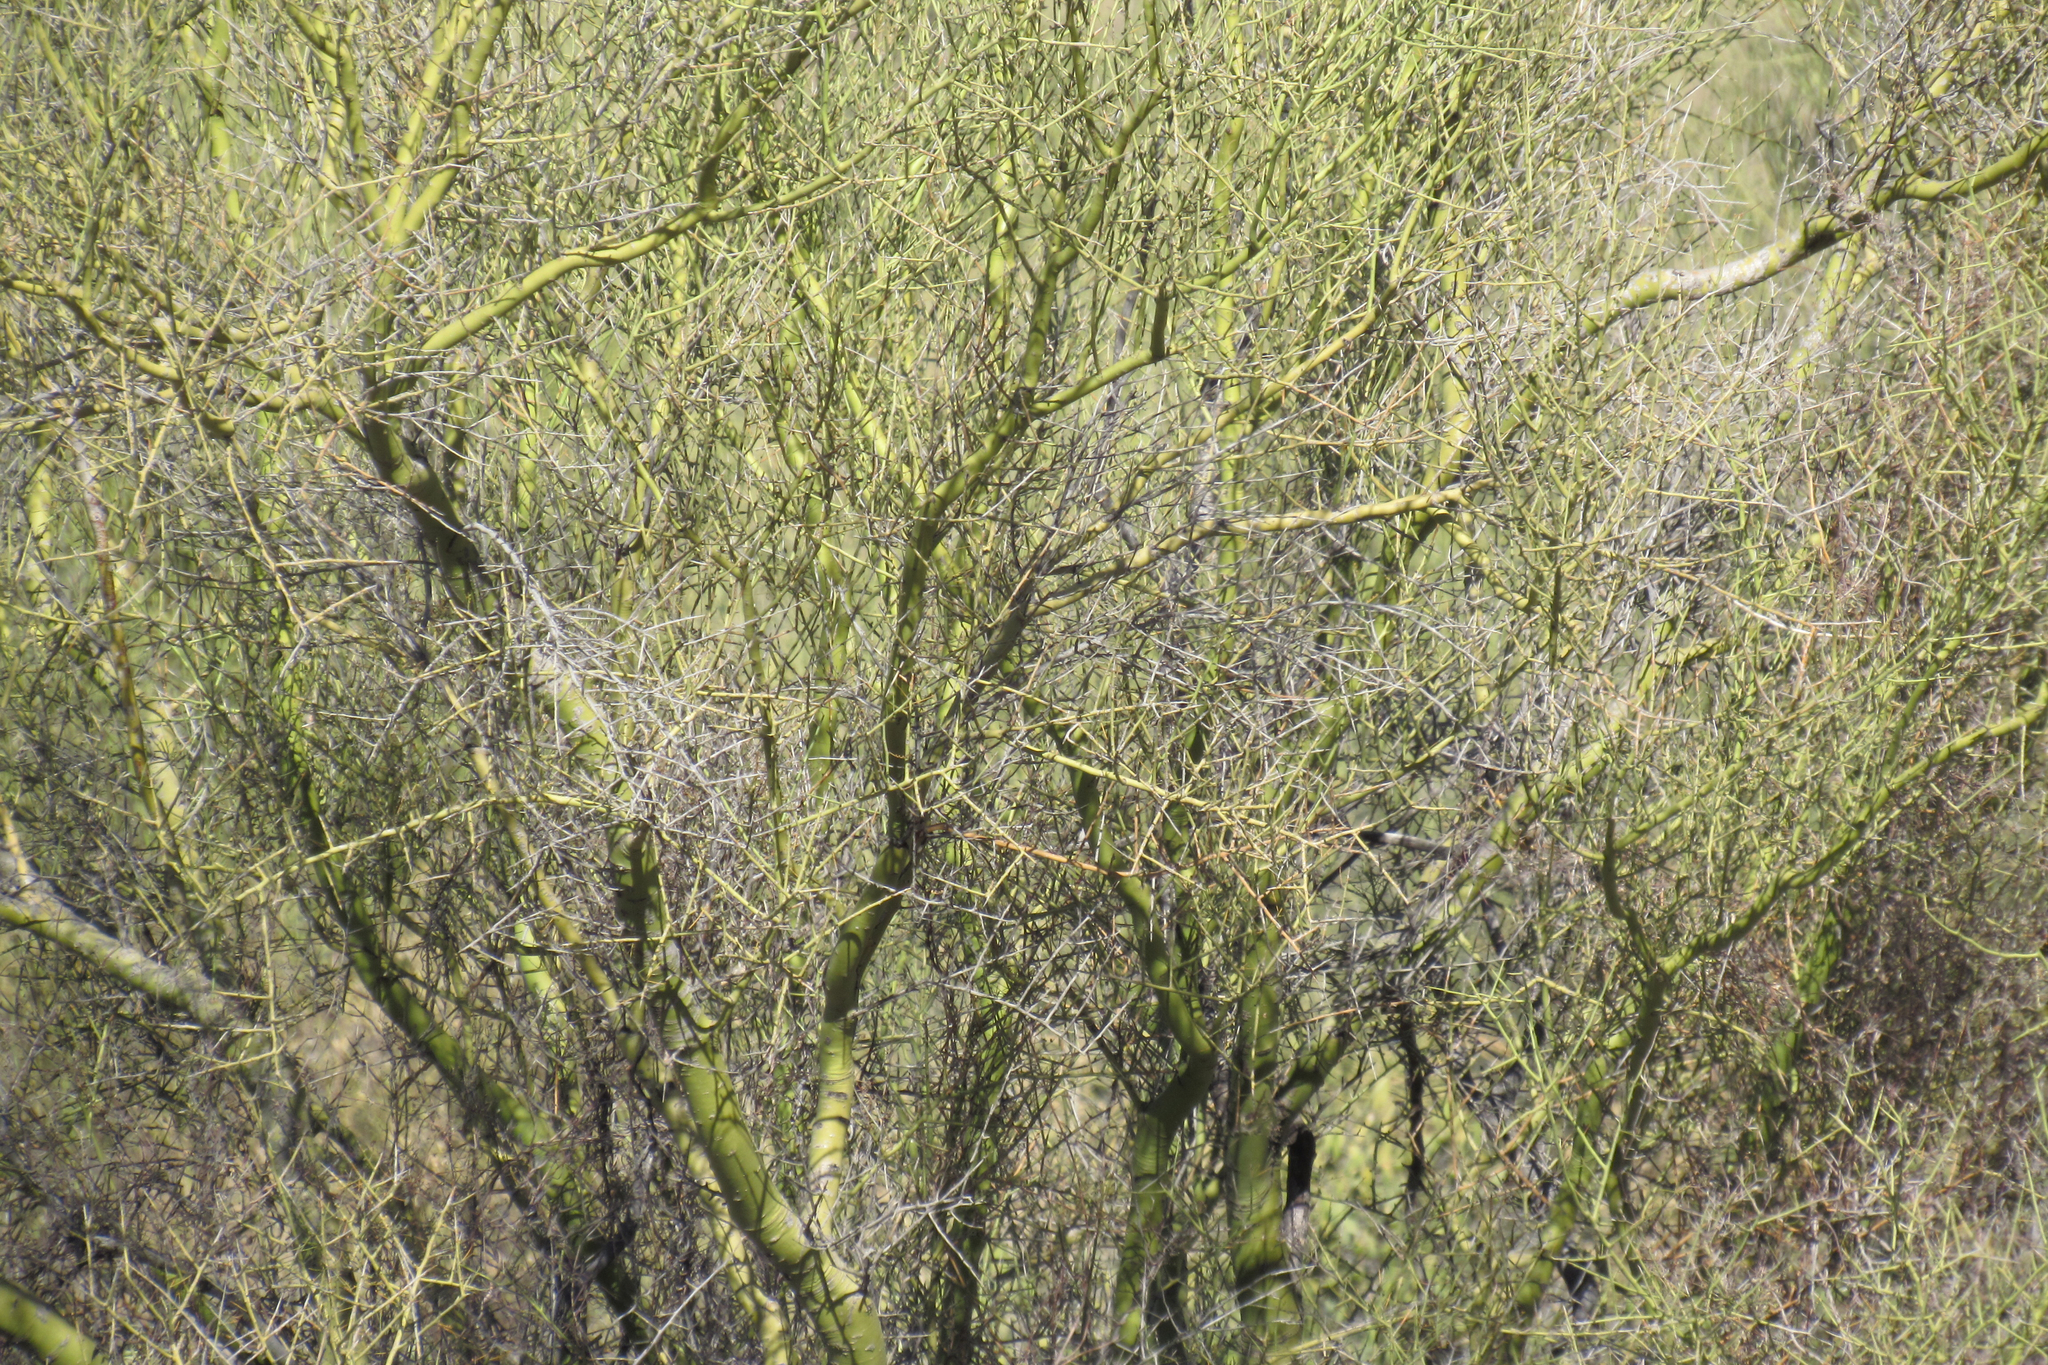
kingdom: Animalia
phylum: Chordata
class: Aves
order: Passeriformes
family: Cardinalidae
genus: Cardinalis
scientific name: Cardinalis sinuatus
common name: Pyrrhuloxia
